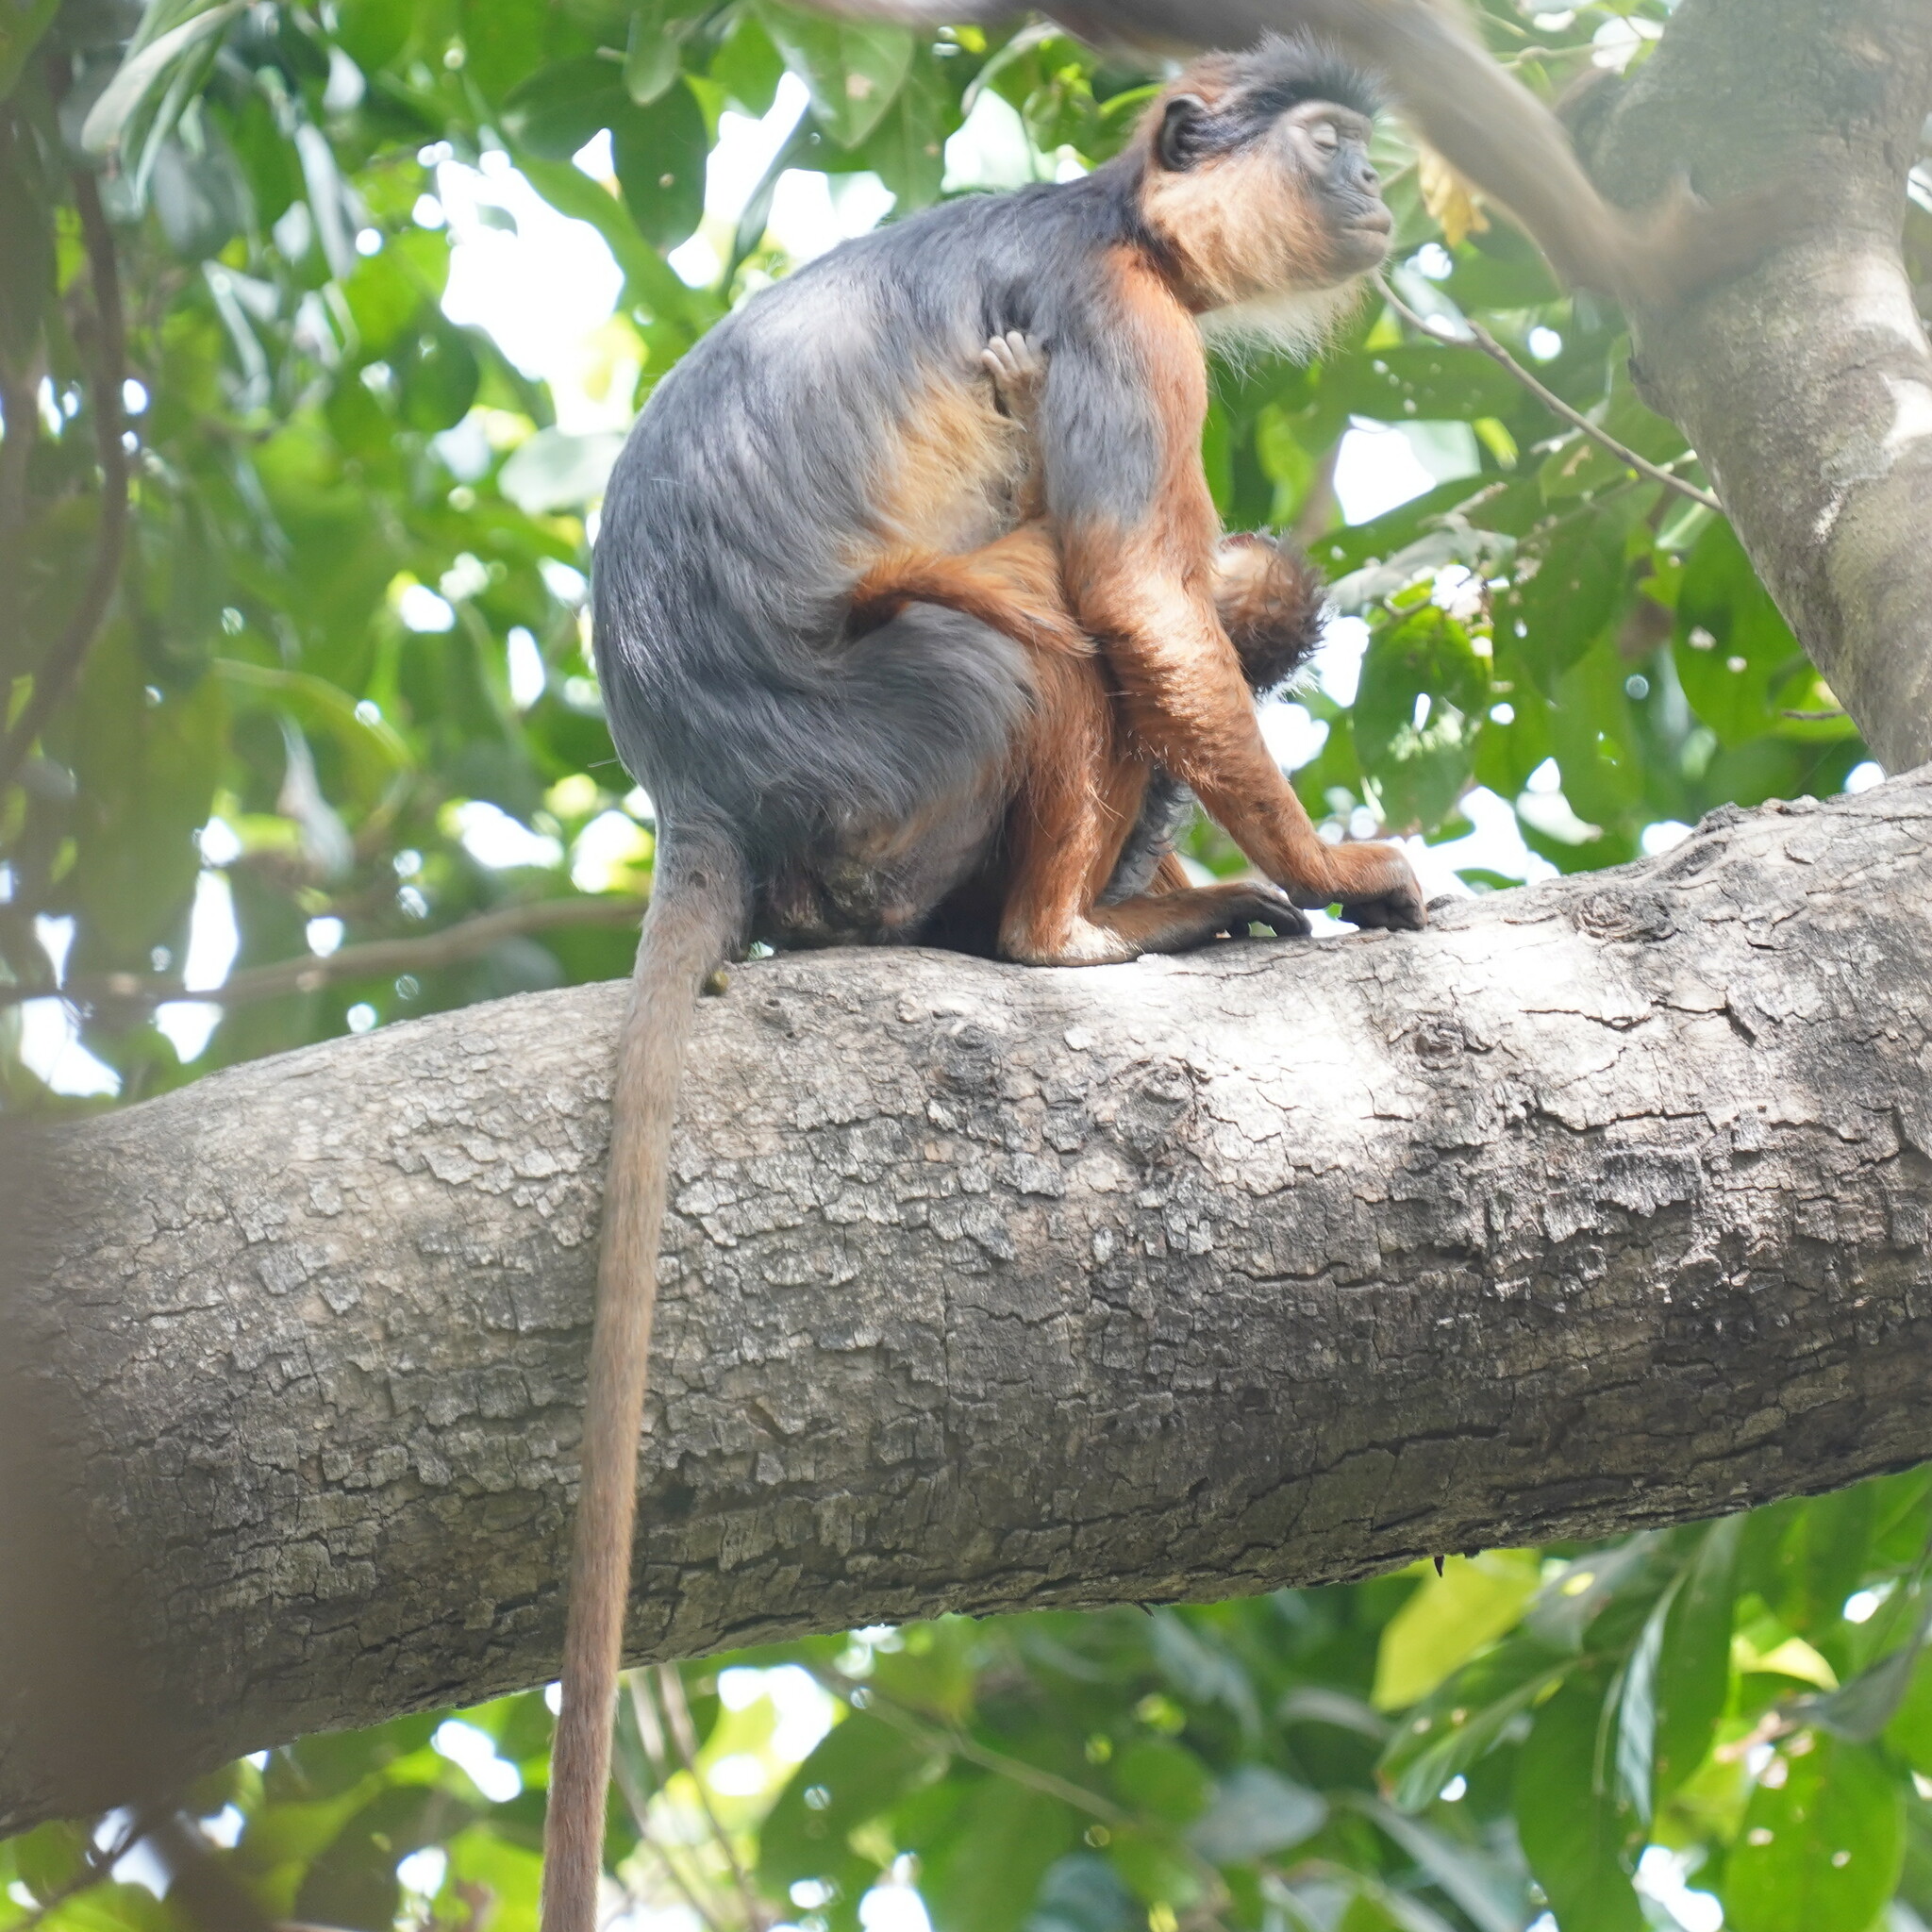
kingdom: Animalia
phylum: Chordata
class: Mammalia
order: Primates
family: Cercopithecidae
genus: Piliocolobus
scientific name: Piliocolobus badius
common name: Western red colobus
